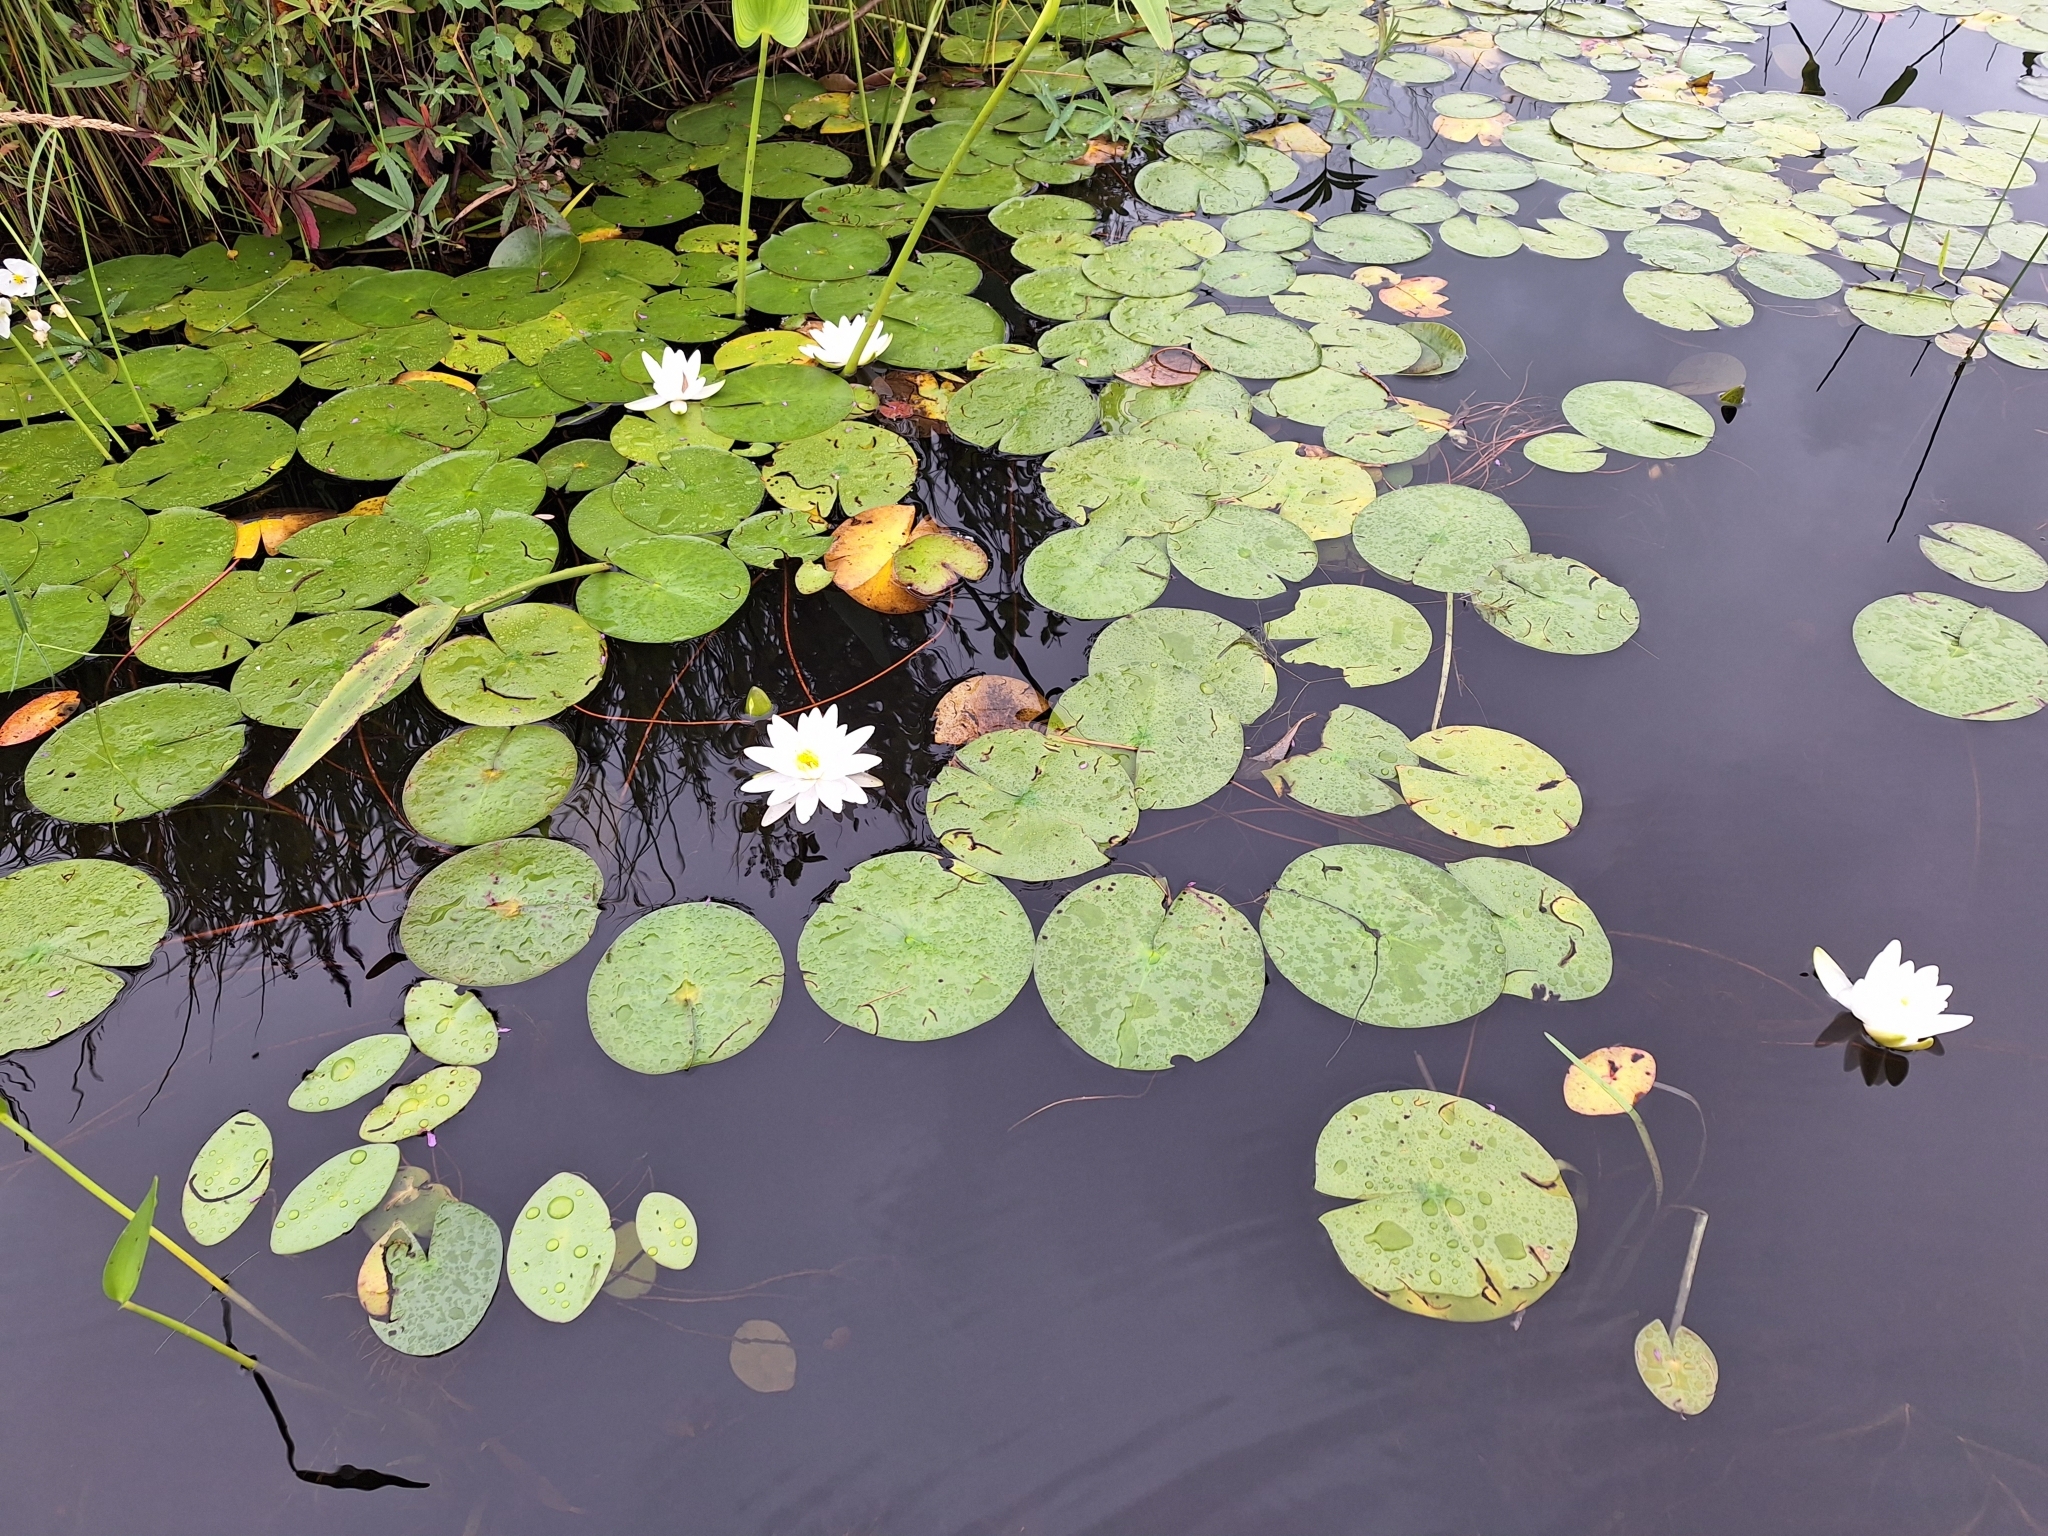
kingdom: Plantae
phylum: Tracheophyta
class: Magnoliopsida
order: Nymphaeales
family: Nymphaeaceae
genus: Nymphaea
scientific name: Nymphaea odorata
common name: Fragrant water-lily
